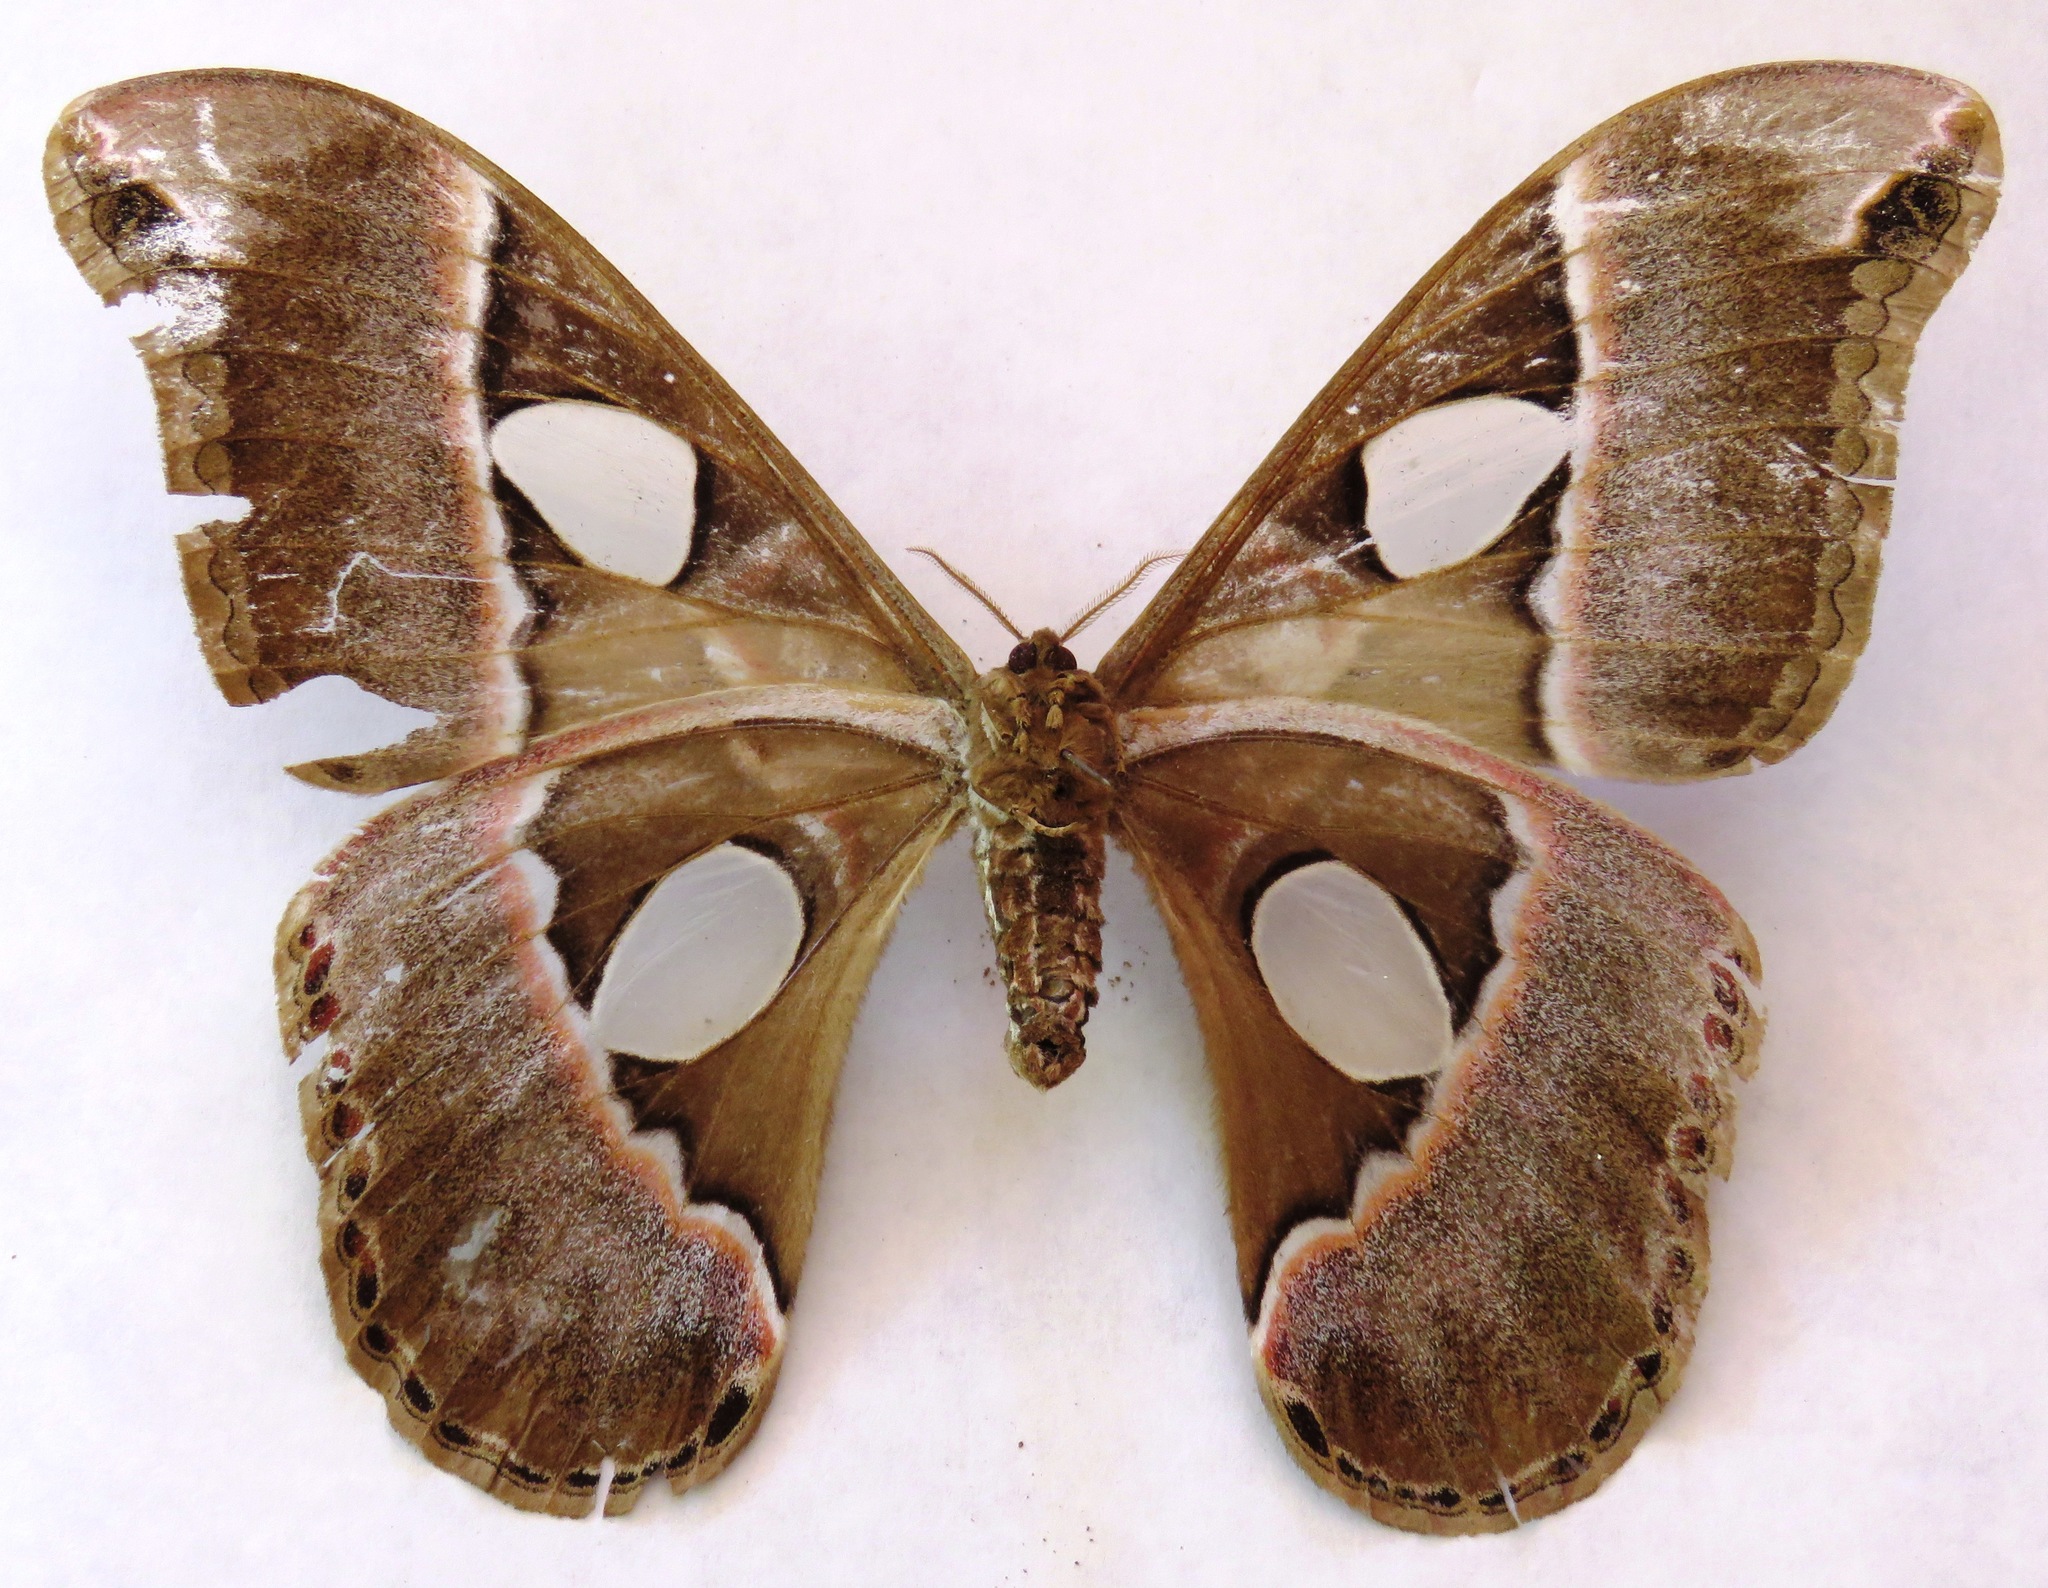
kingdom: Animalia
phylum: Arthropoda
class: Insecta
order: Lepidoptera
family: Saturniidae
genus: Rothschildia
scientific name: Rothschildia lebeau
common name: Lebeau's rothschildia
